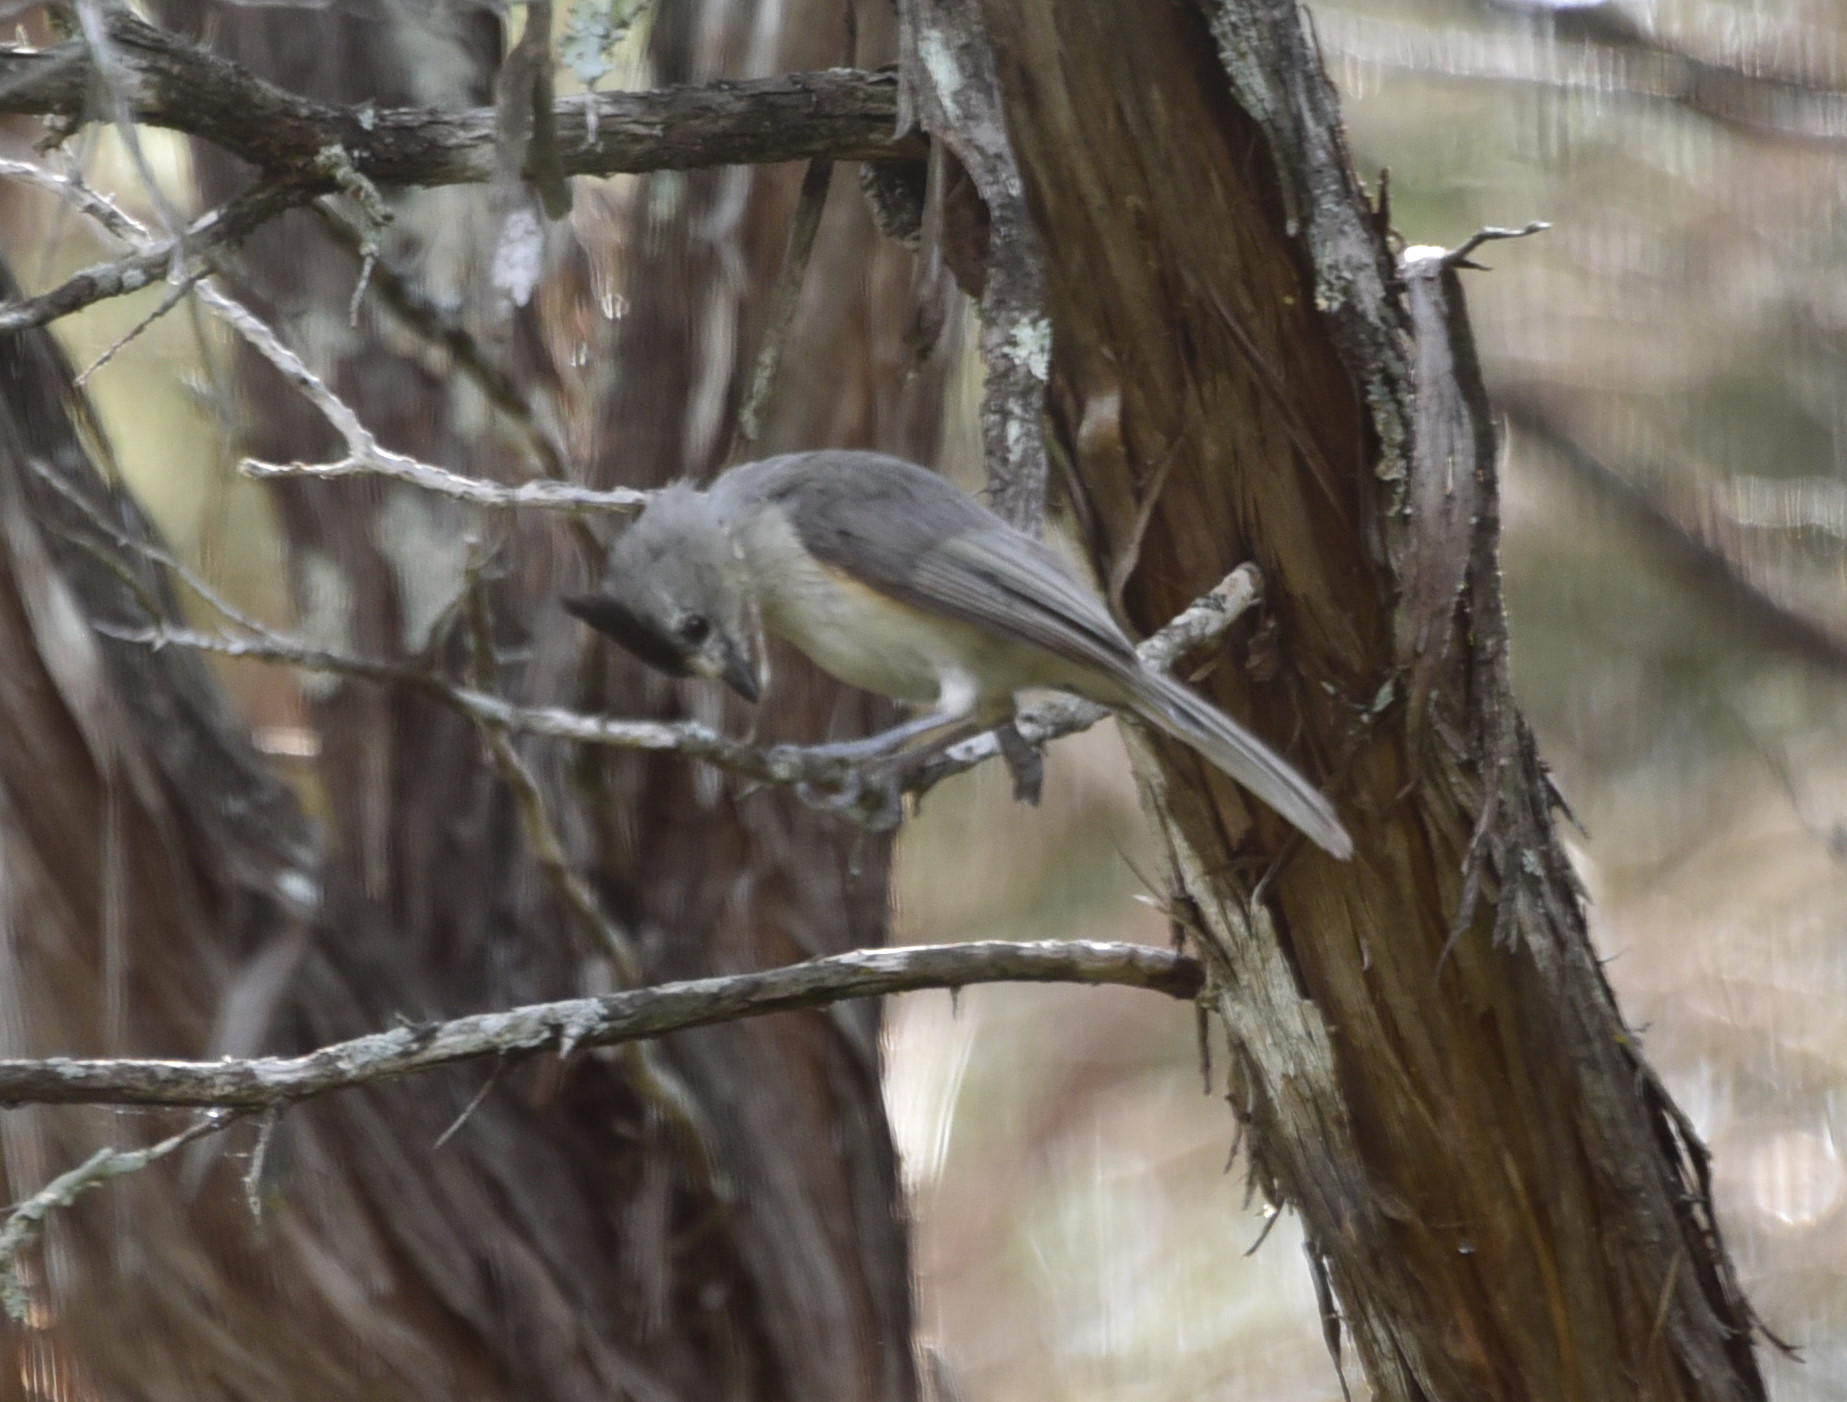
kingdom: Animalia
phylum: Chordata
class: Aves
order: Passeriformes
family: Paridae
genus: Baeolophus
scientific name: Baeolophus atricristatus
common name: Black-crested titmouse
